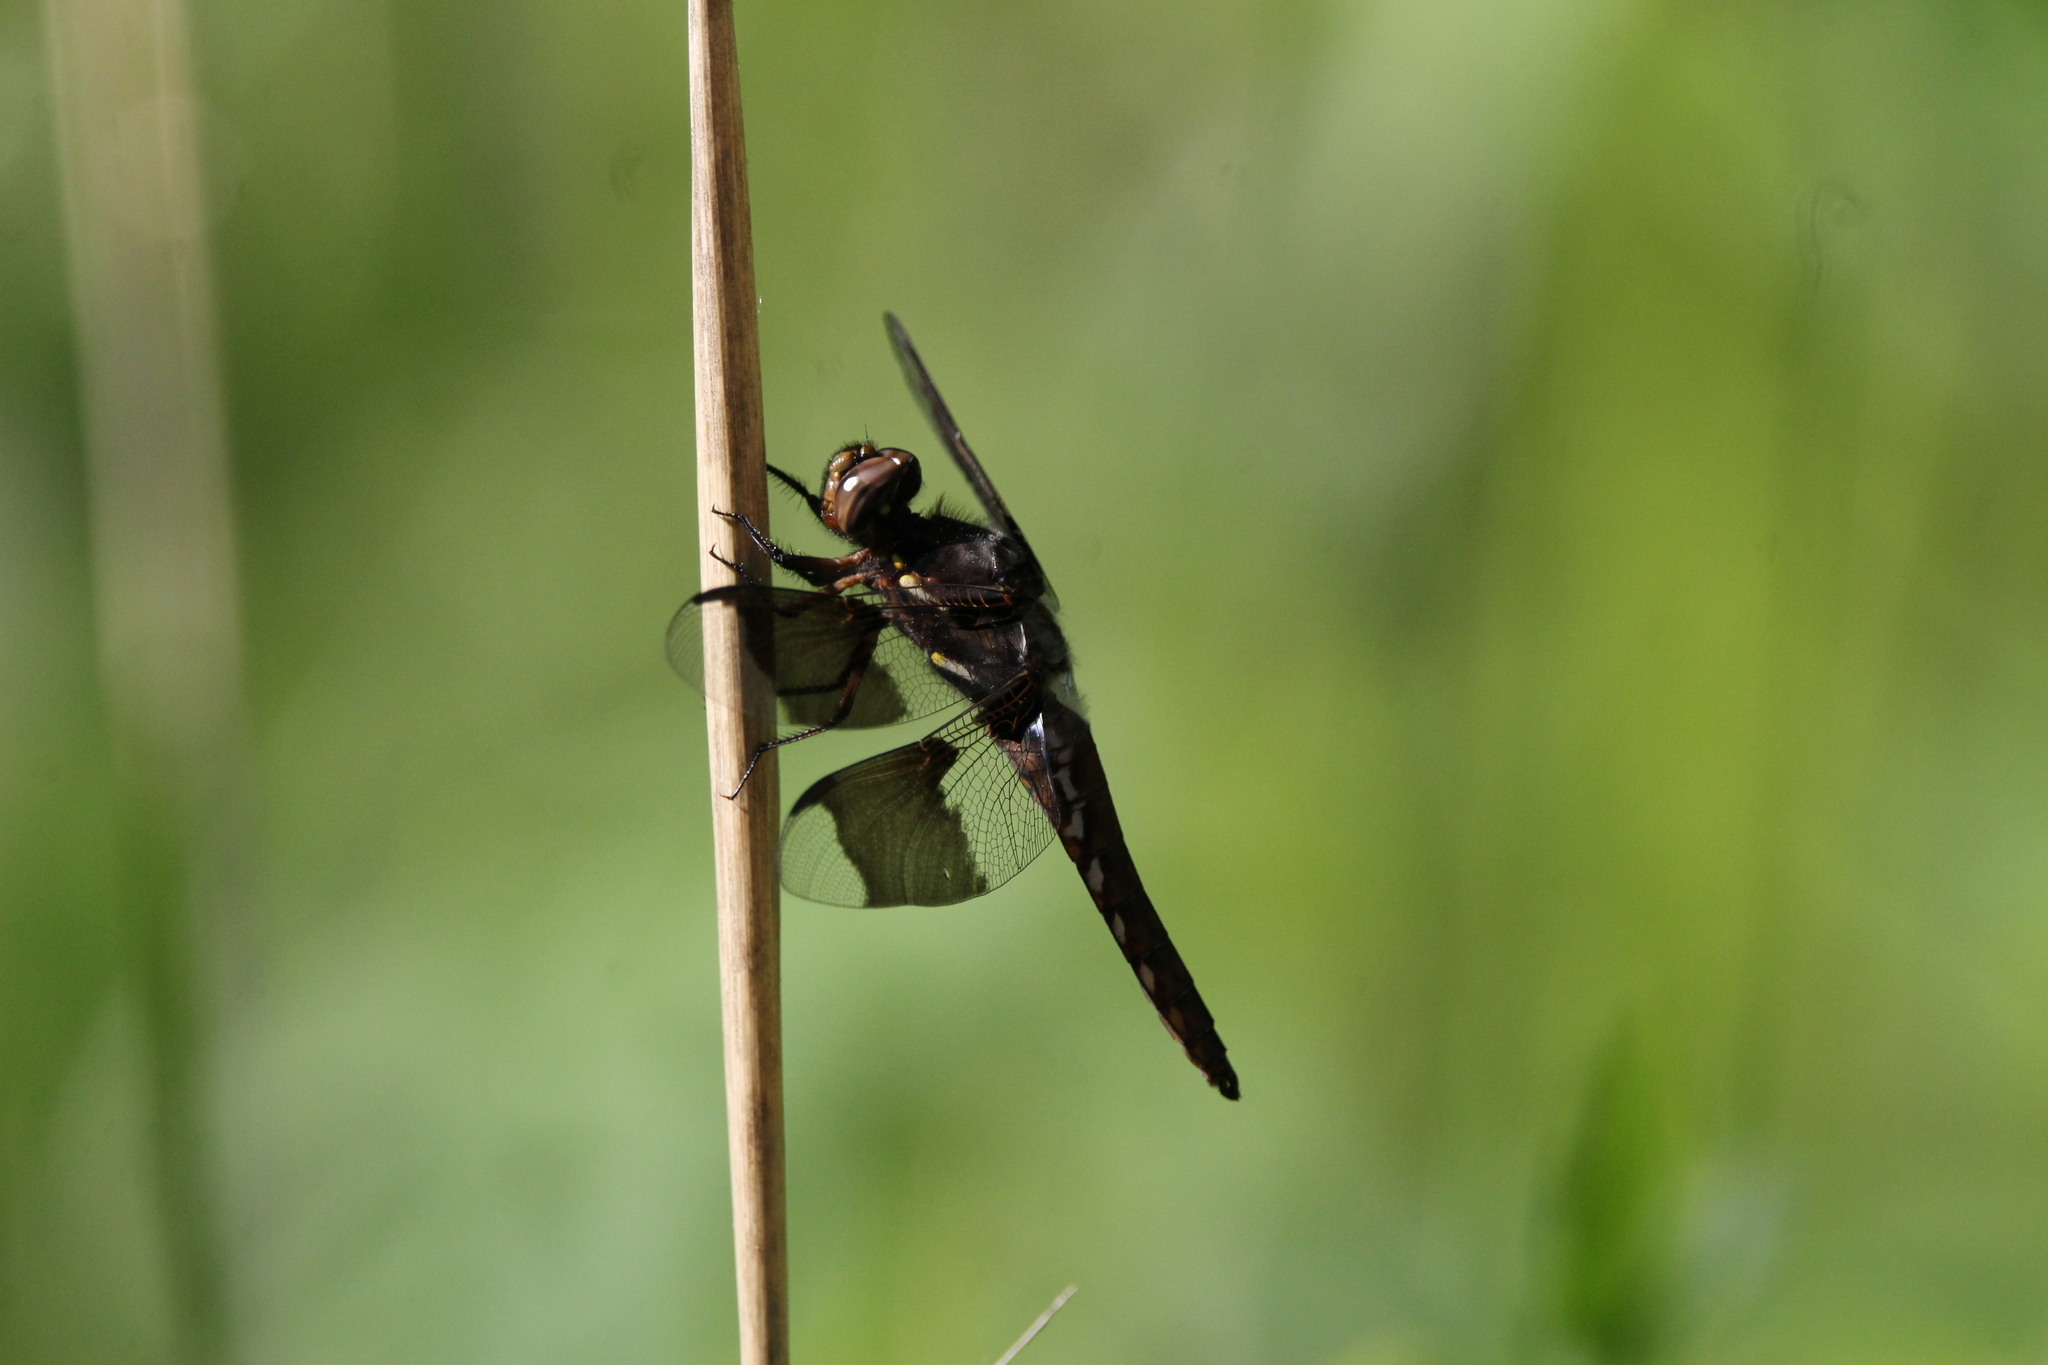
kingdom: Animalia
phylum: Arthropoda
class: Insecta
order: Odonata
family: Libellulidae
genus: Plathemis
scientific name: Plathemis lydia
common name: Common whitetail
